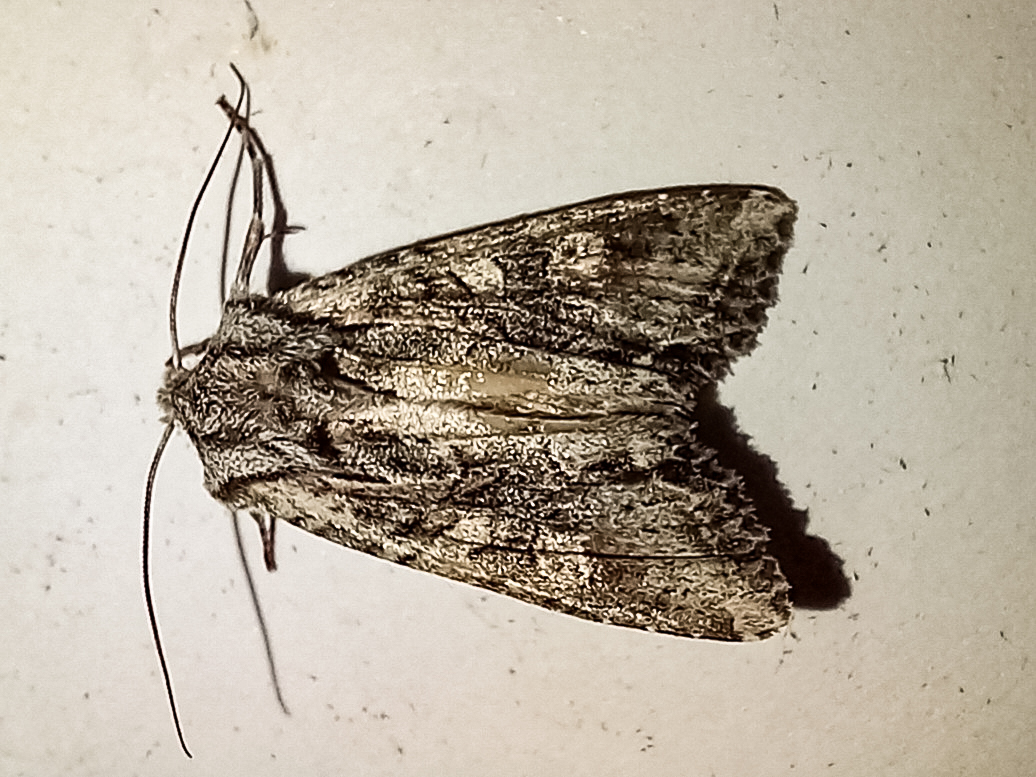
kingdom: Animalia
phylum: Arthropoda
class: Insecta
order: Lepidoptera
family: Noctuidae
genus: Ichneutica
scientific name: Ichneutica mutans
